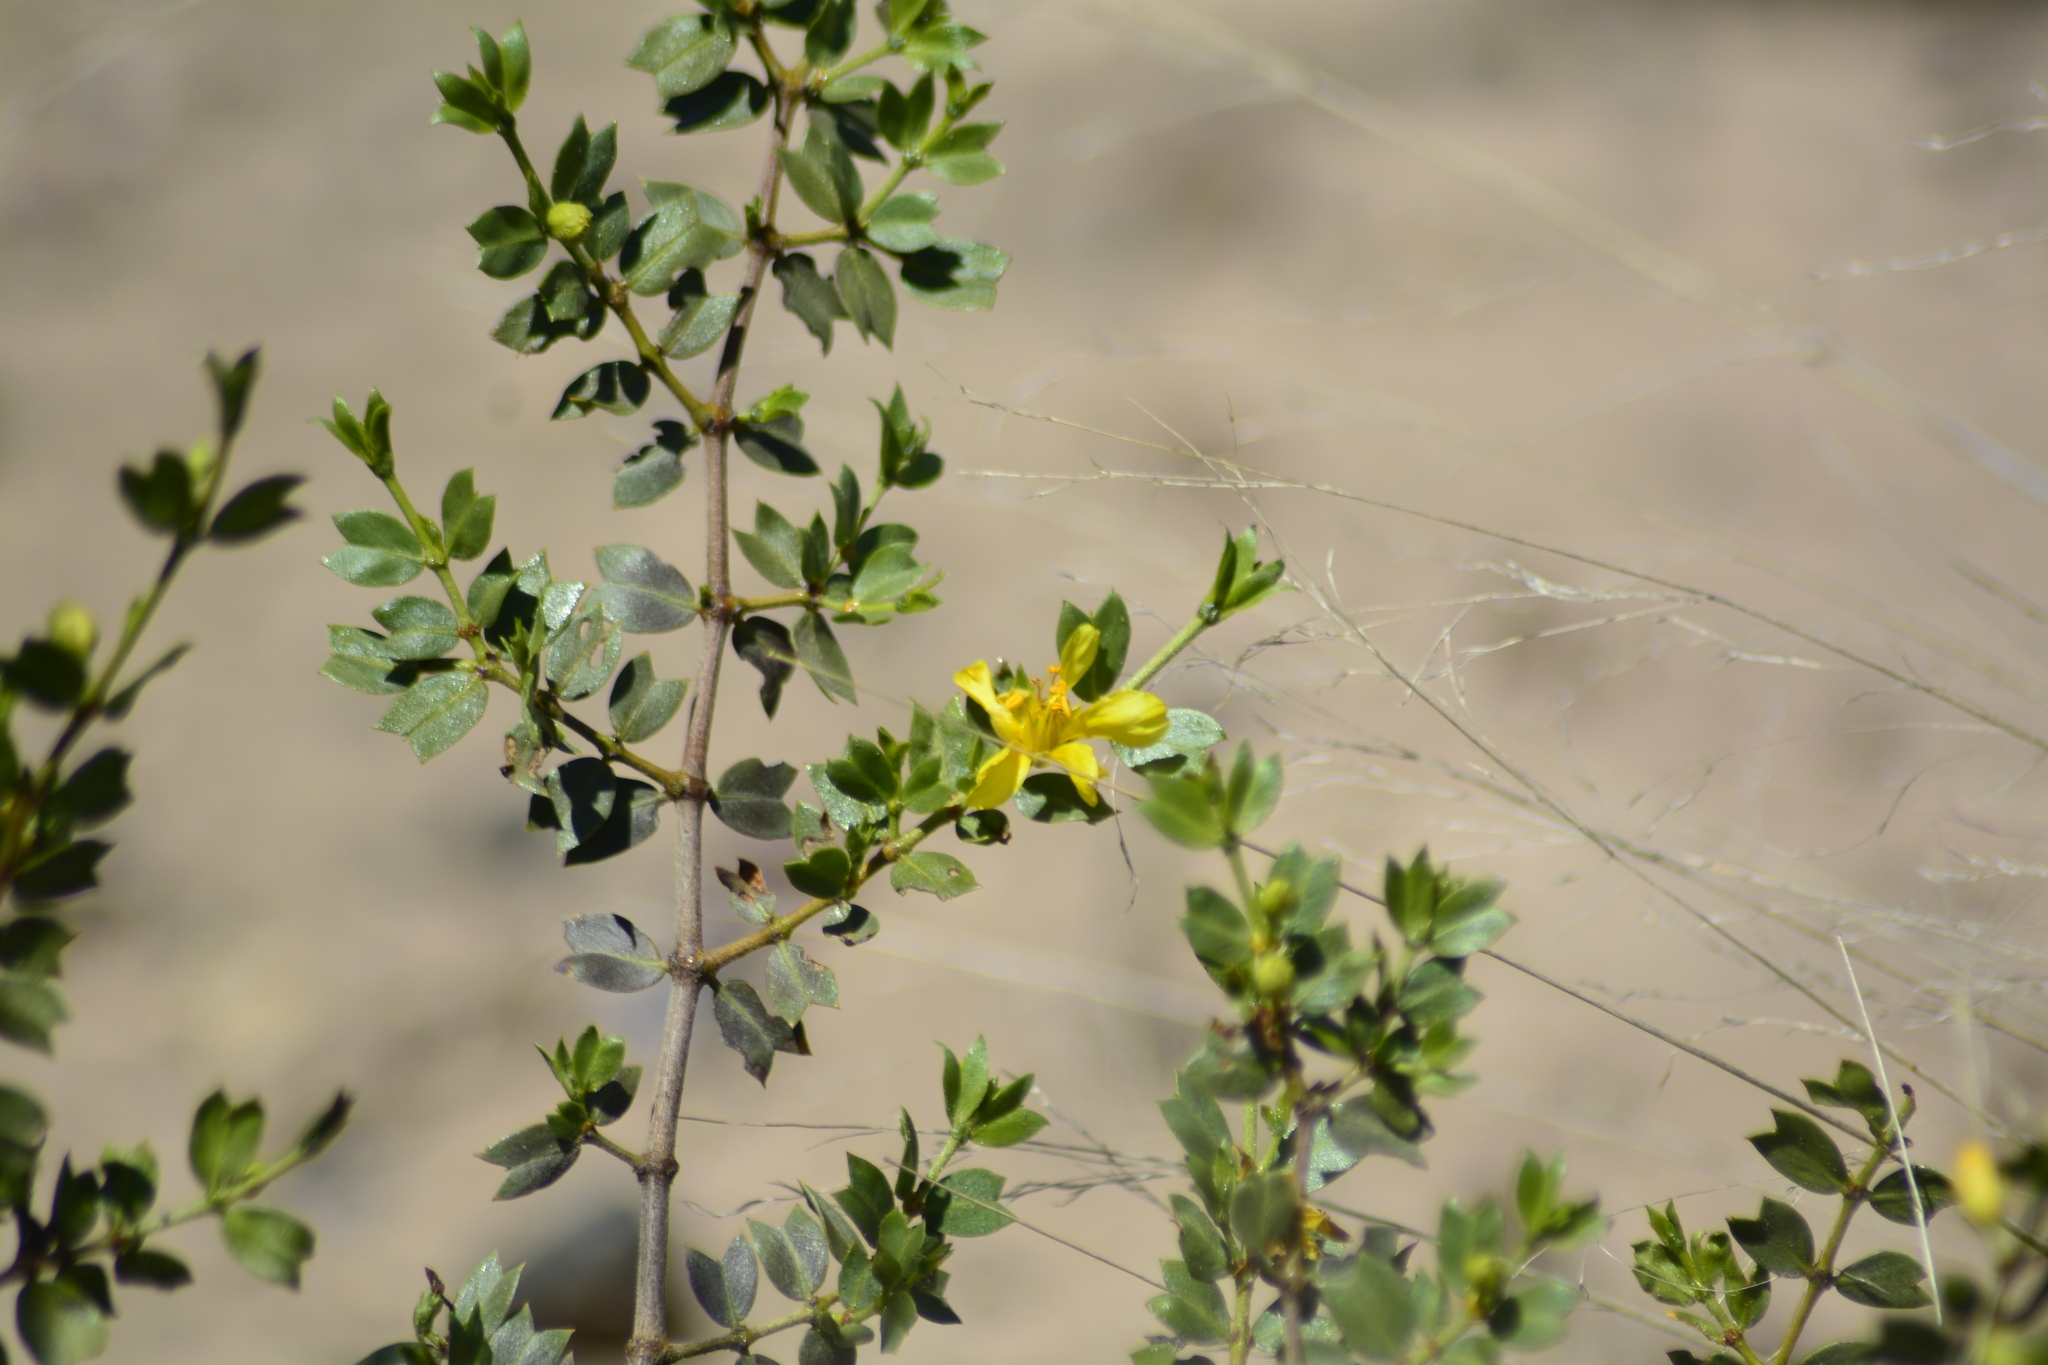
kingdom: Plantae
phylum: Tracheophyta
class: Magnoliopsida
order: Zygophyllales
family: Zygophyllaceae
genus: Larrea
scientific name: Larrea cuneifolia
